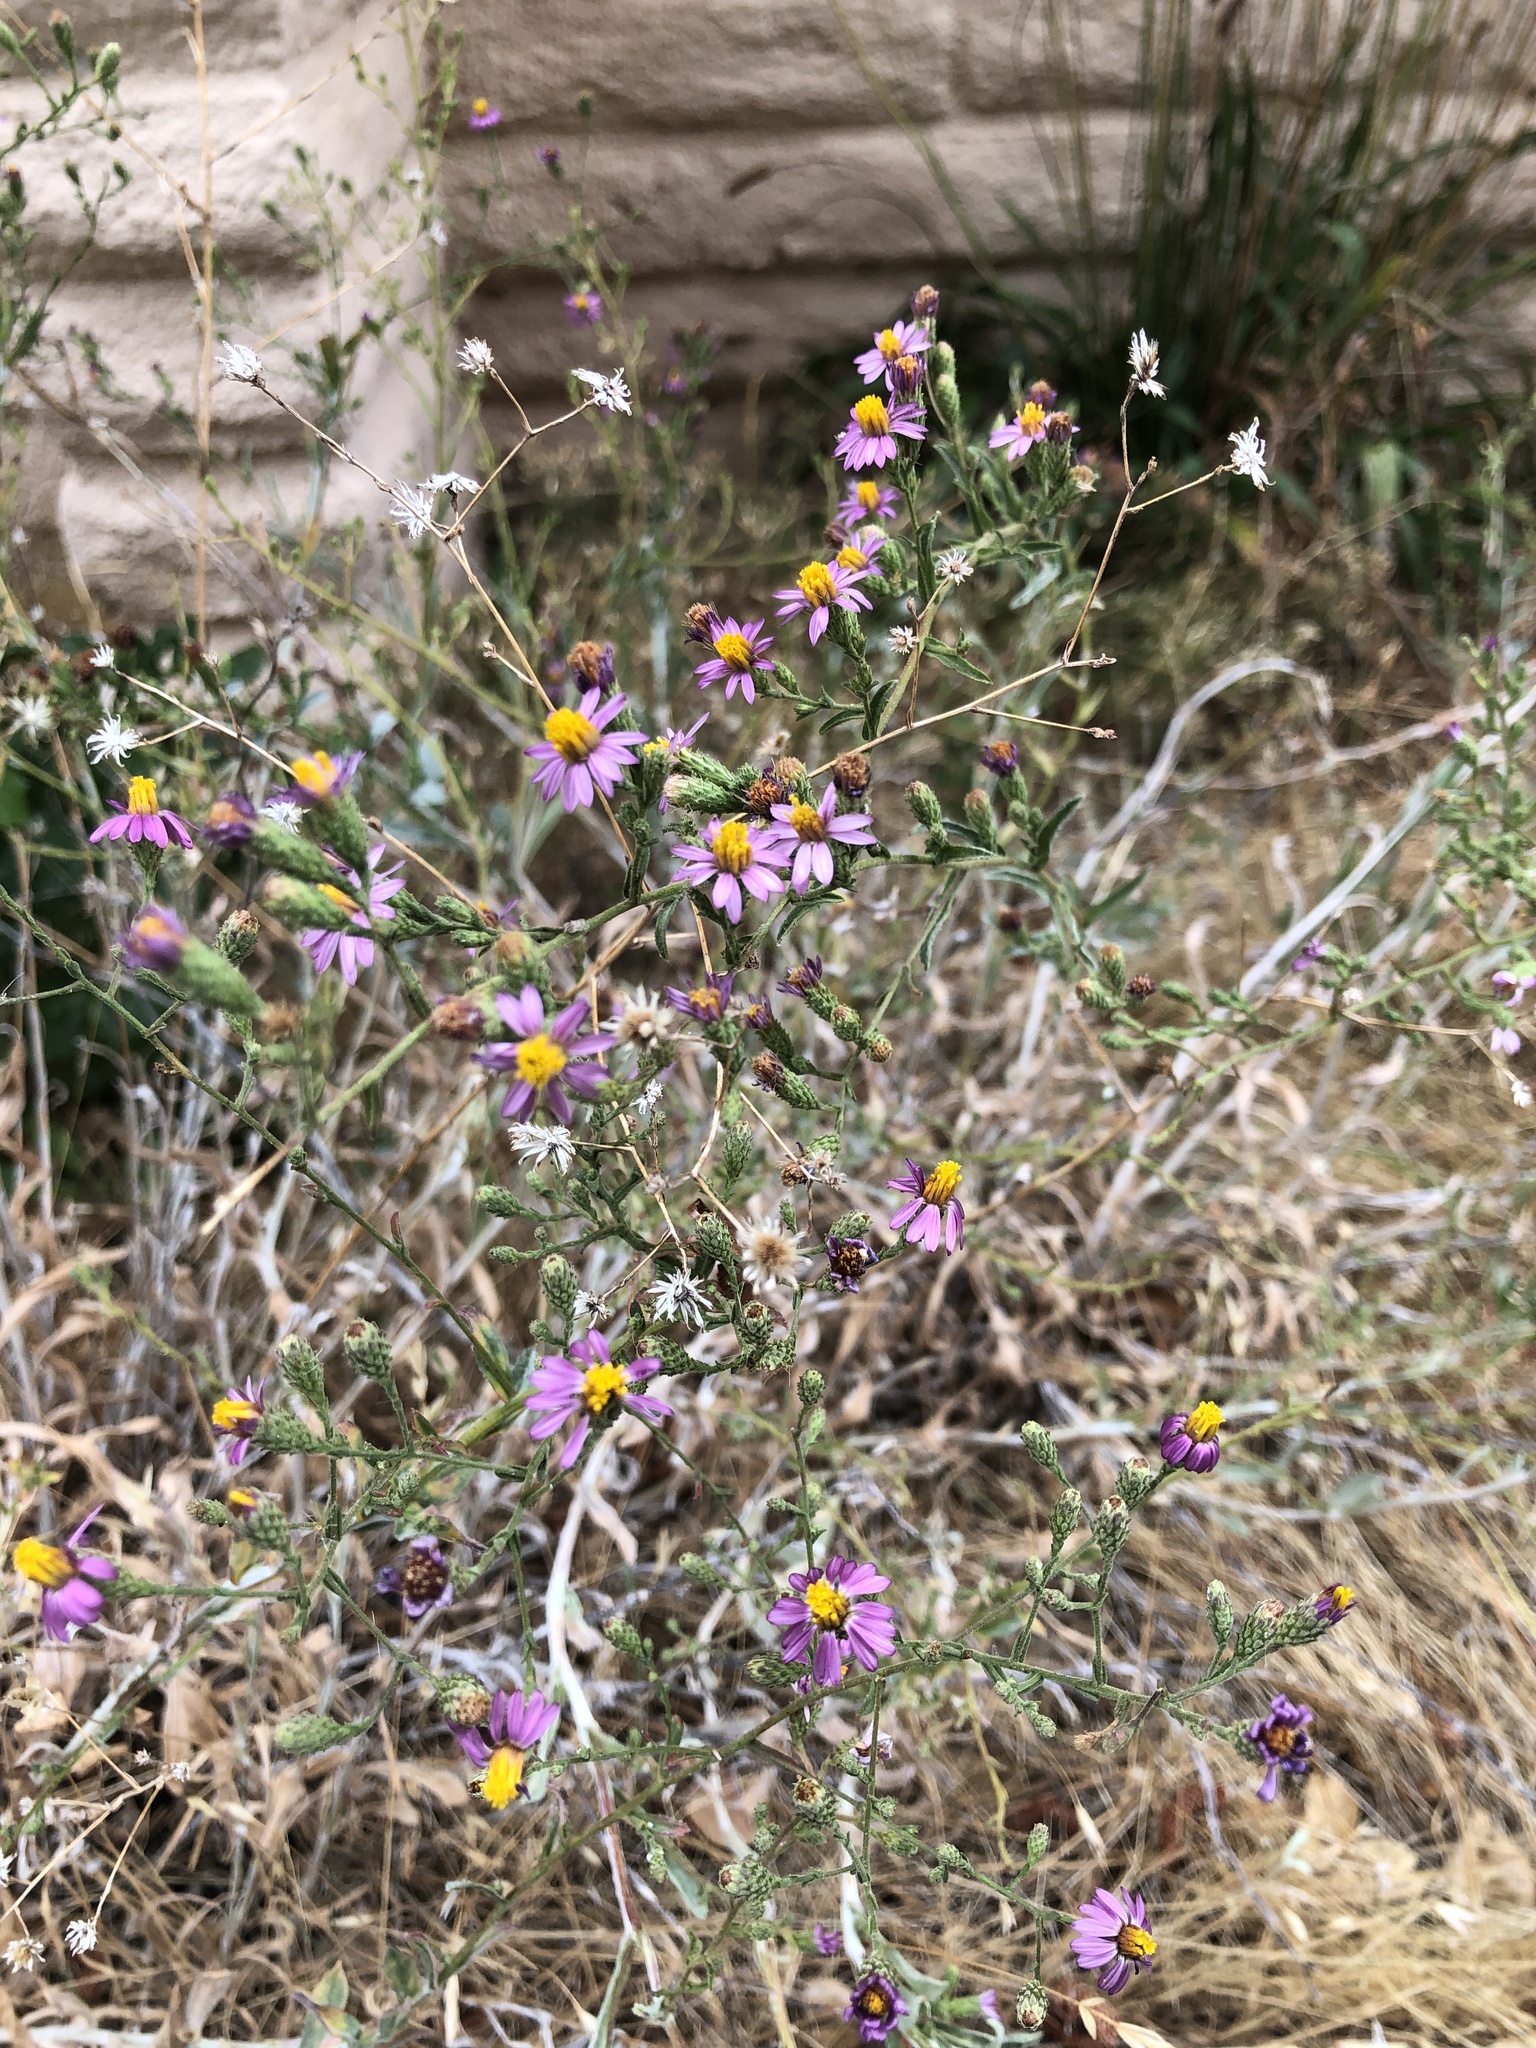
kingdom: Plantae
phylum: Tracheophyta
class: Magnoliopsida
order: Asterales
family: Asteraceae
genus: Corethrogyne
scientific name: Corethrogyne filaginifolia
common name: Sand-aster
